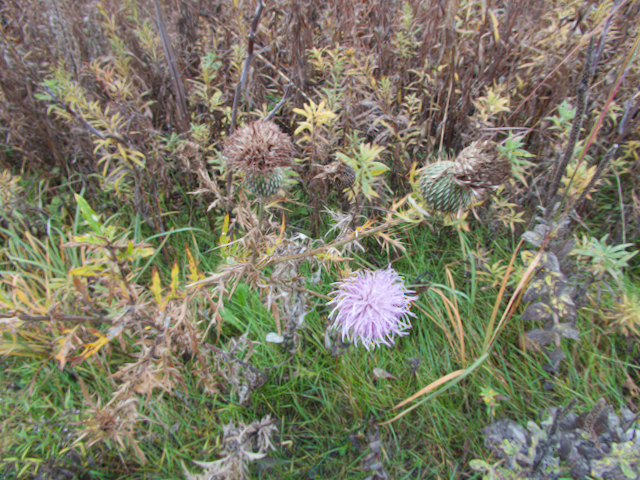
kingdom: Plantae
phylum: Tracheophyta
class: Magnoliopsida
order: Asterales
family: Asteraceae
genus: Cirsium
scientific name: Cirsium discolor
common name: Field thistle
